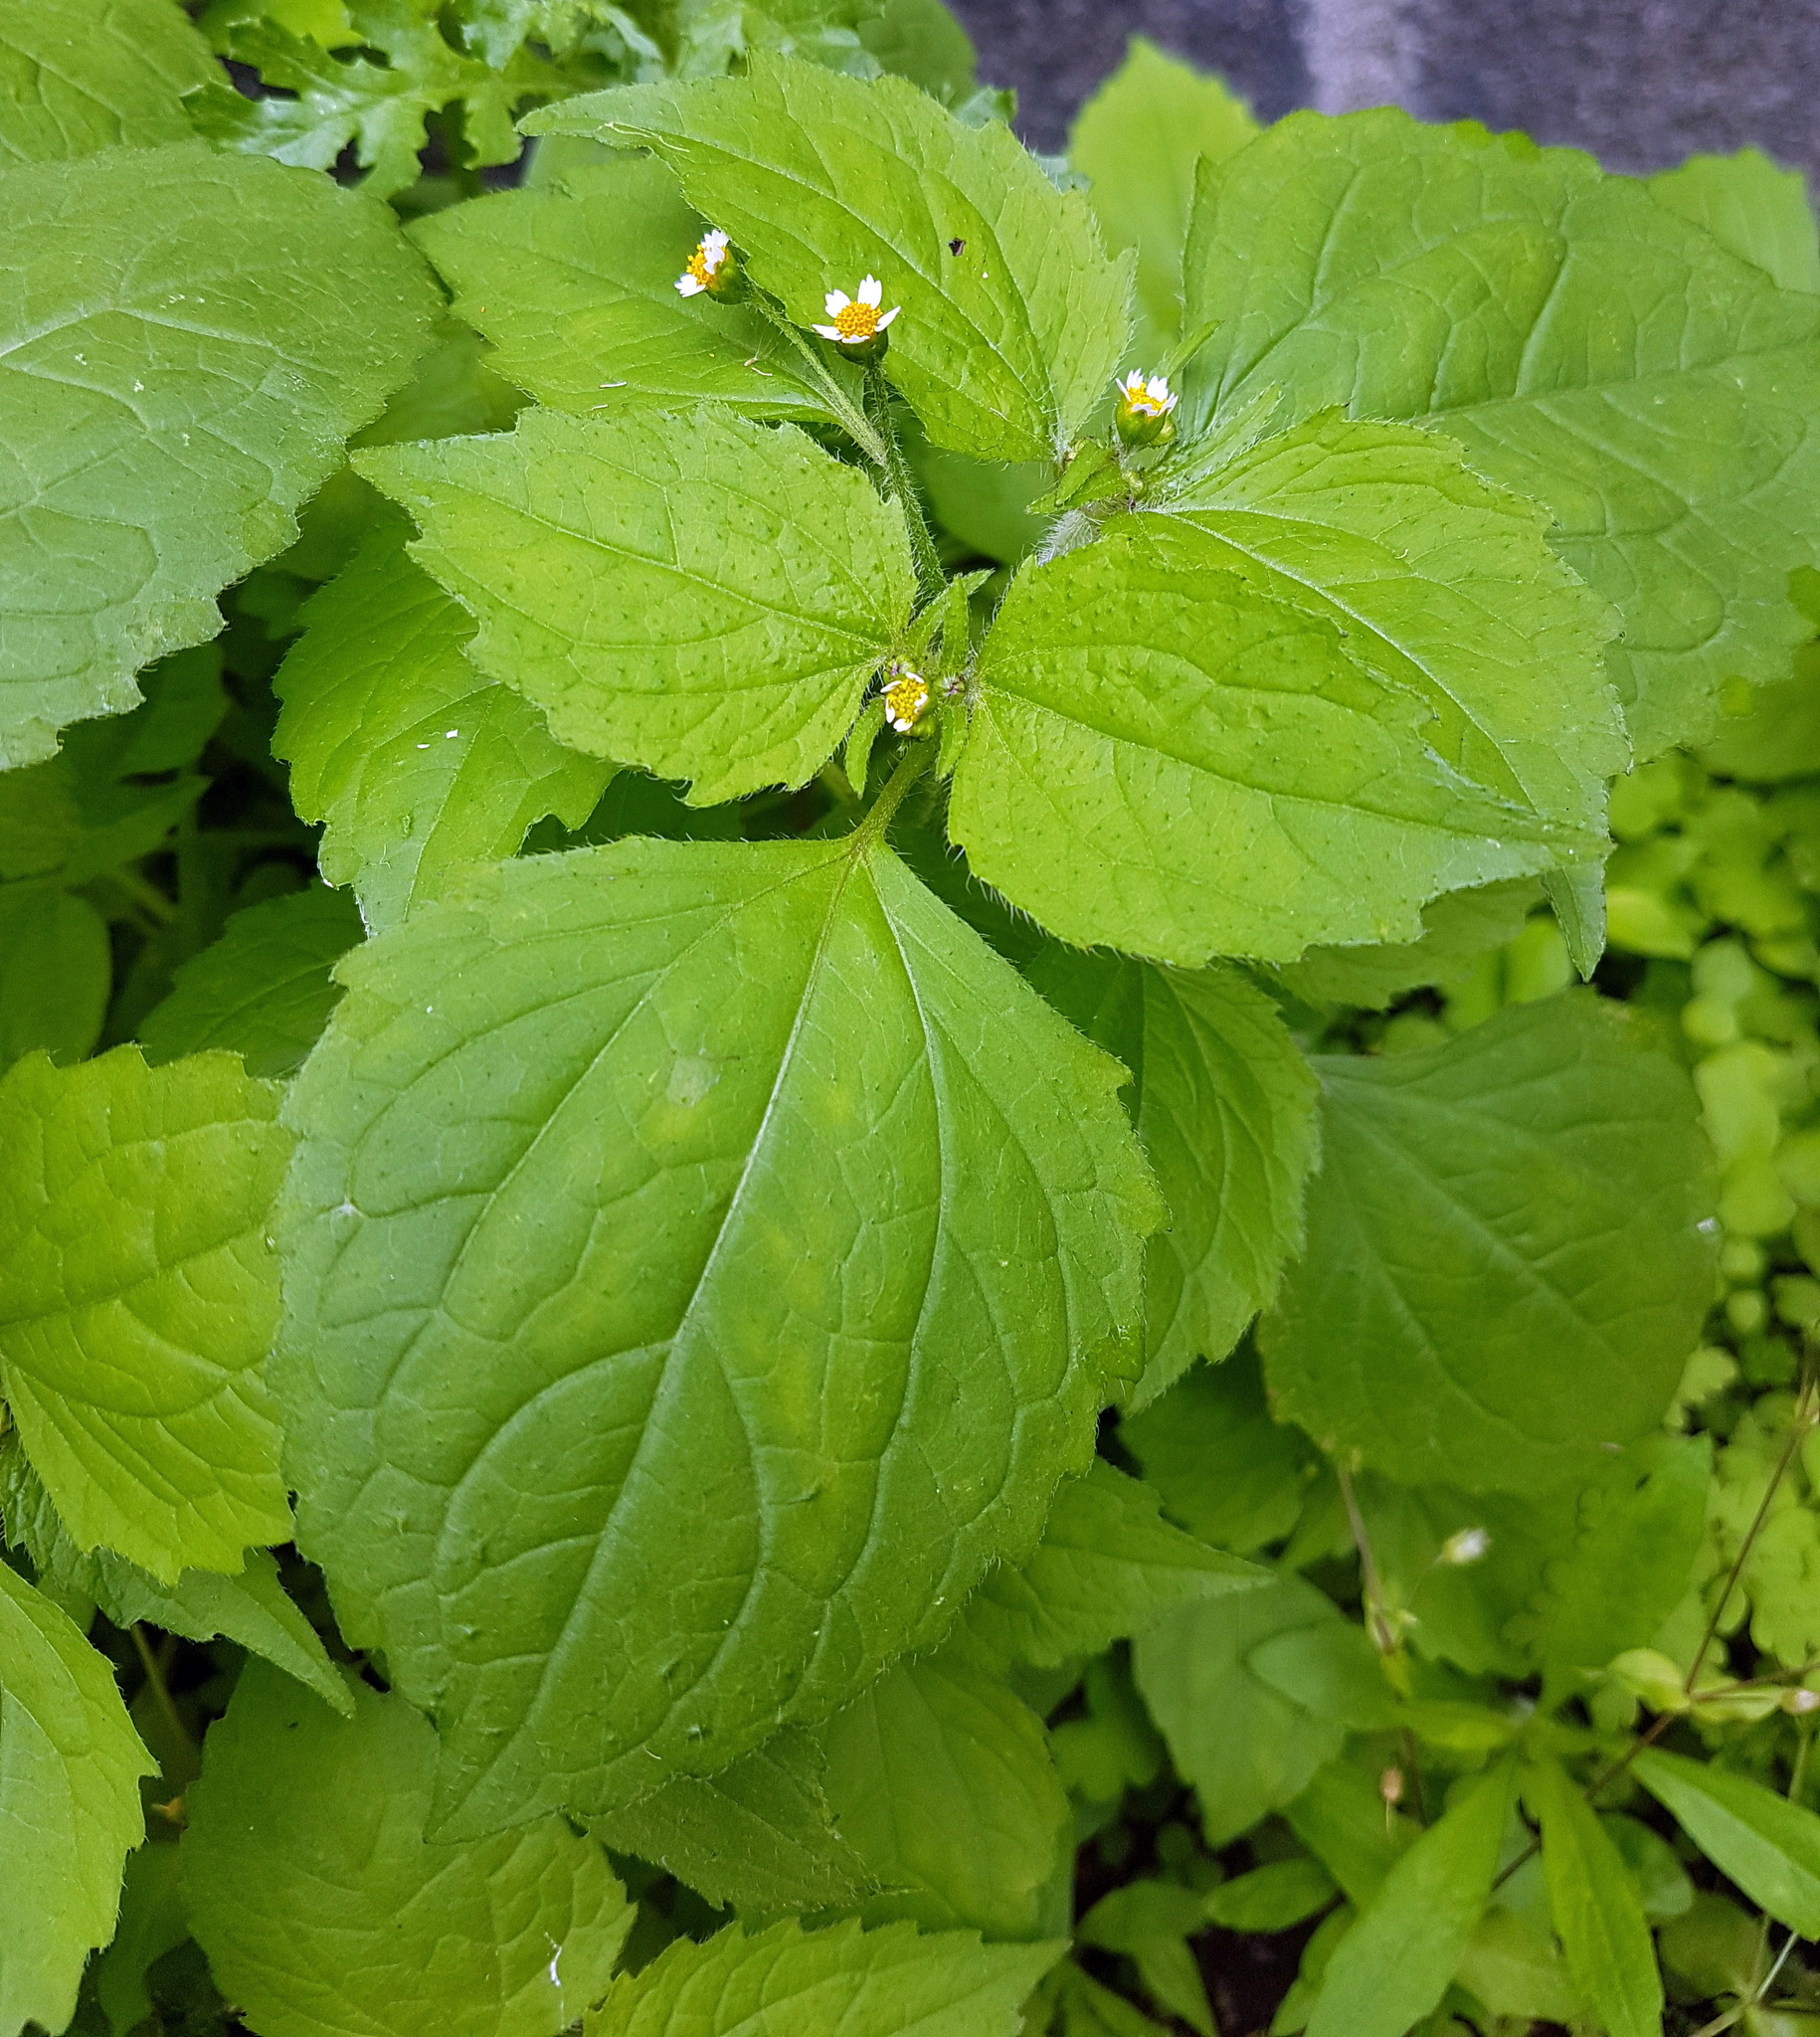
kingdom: Plantae
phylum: Tracheophyta
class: Magnoliopsida
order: Asterales
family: Asteraceae
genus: Galinsoga
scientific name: Galinsoga quadriradiata
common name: Shaggy soldier
